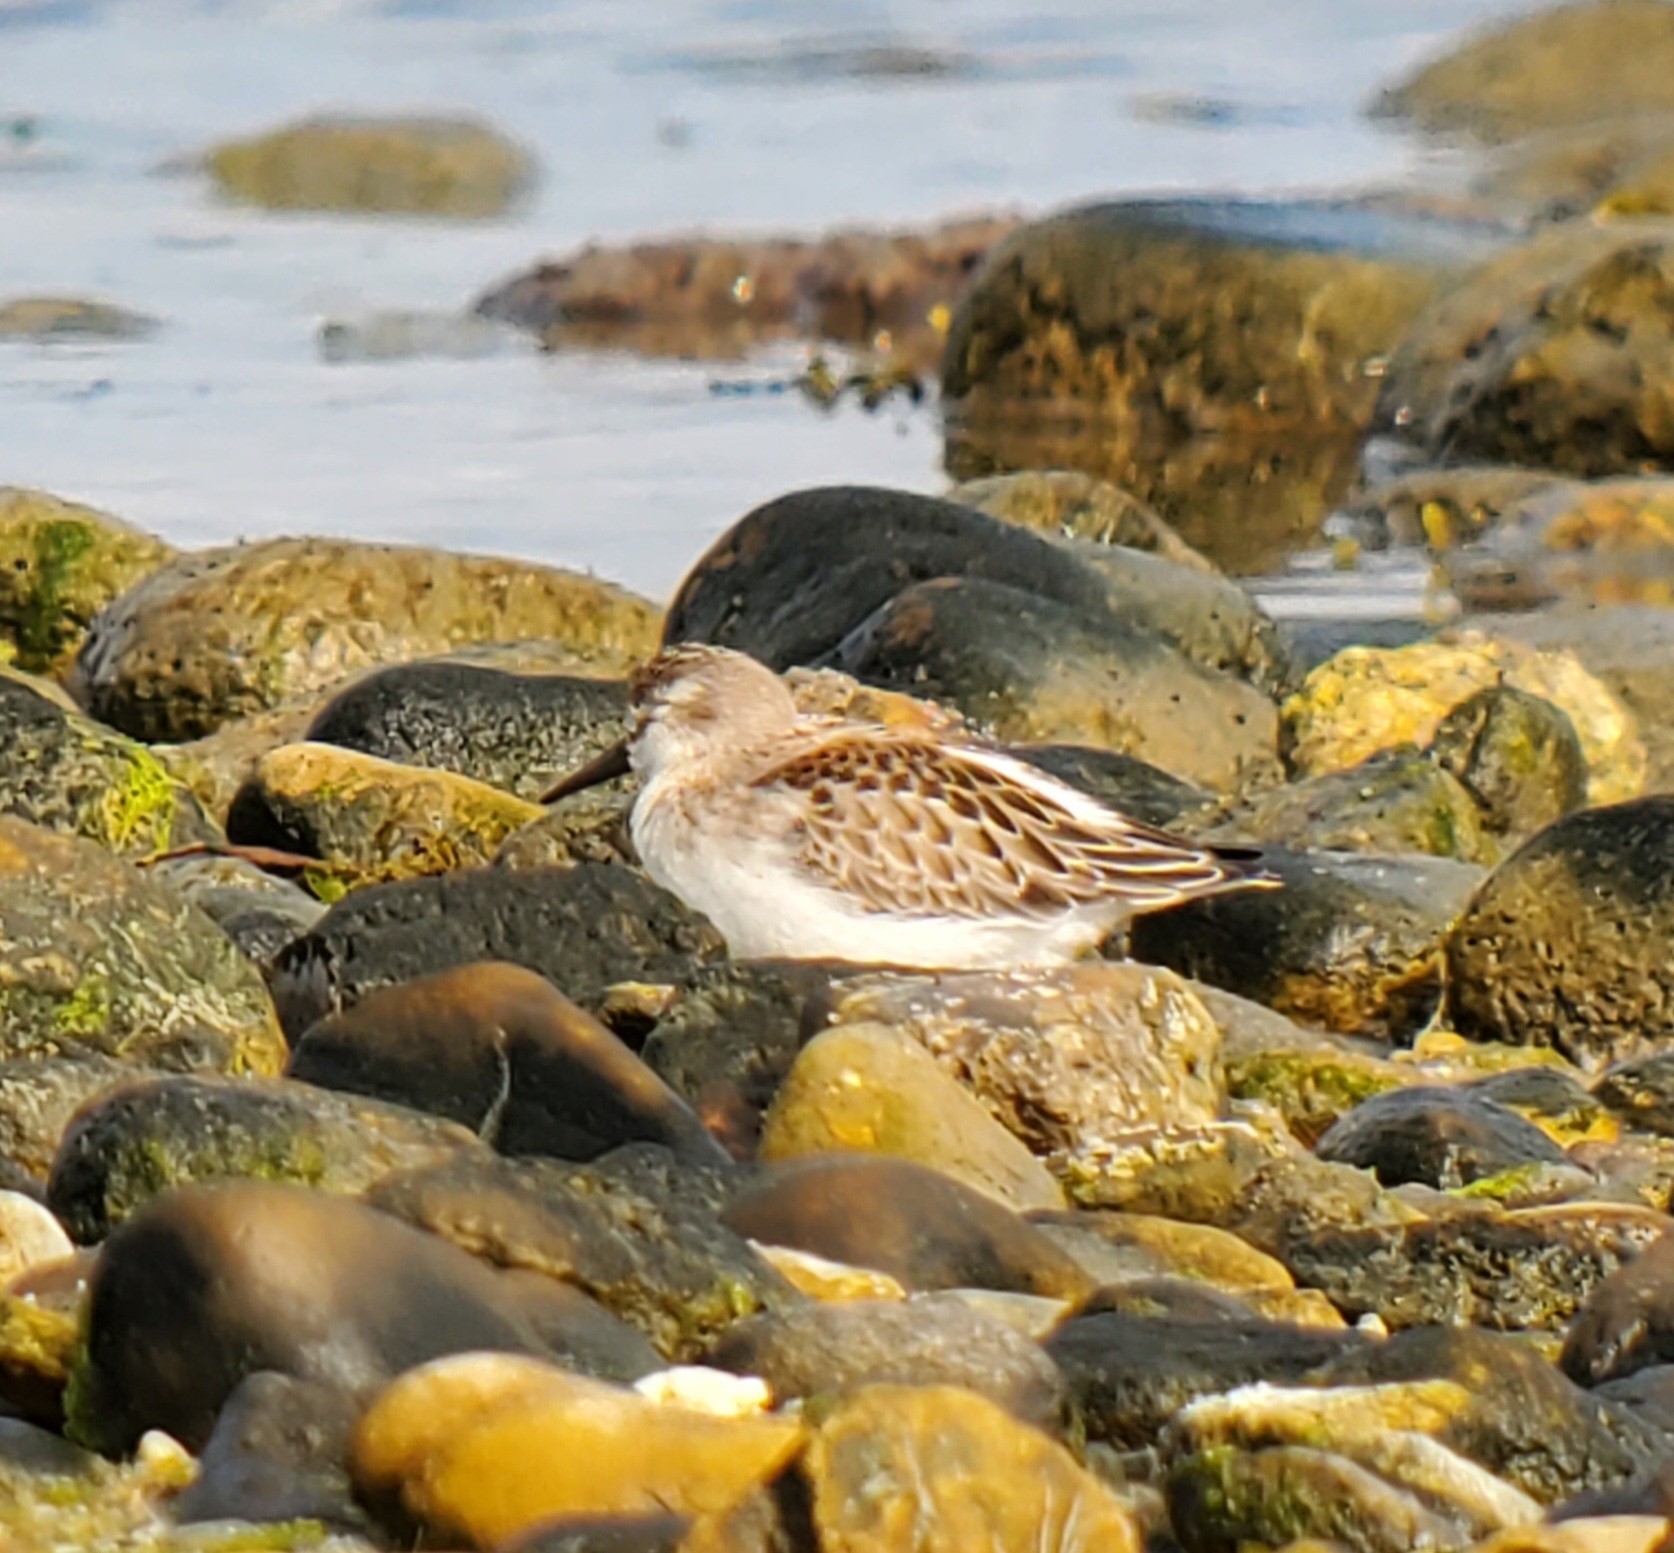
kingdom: Animalia
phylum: Chordata
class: Aves
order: Charadriiformes
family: Scolopacidae
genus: Calidris
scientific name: Calidris pusilla
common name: Semipalmated sandpiper
